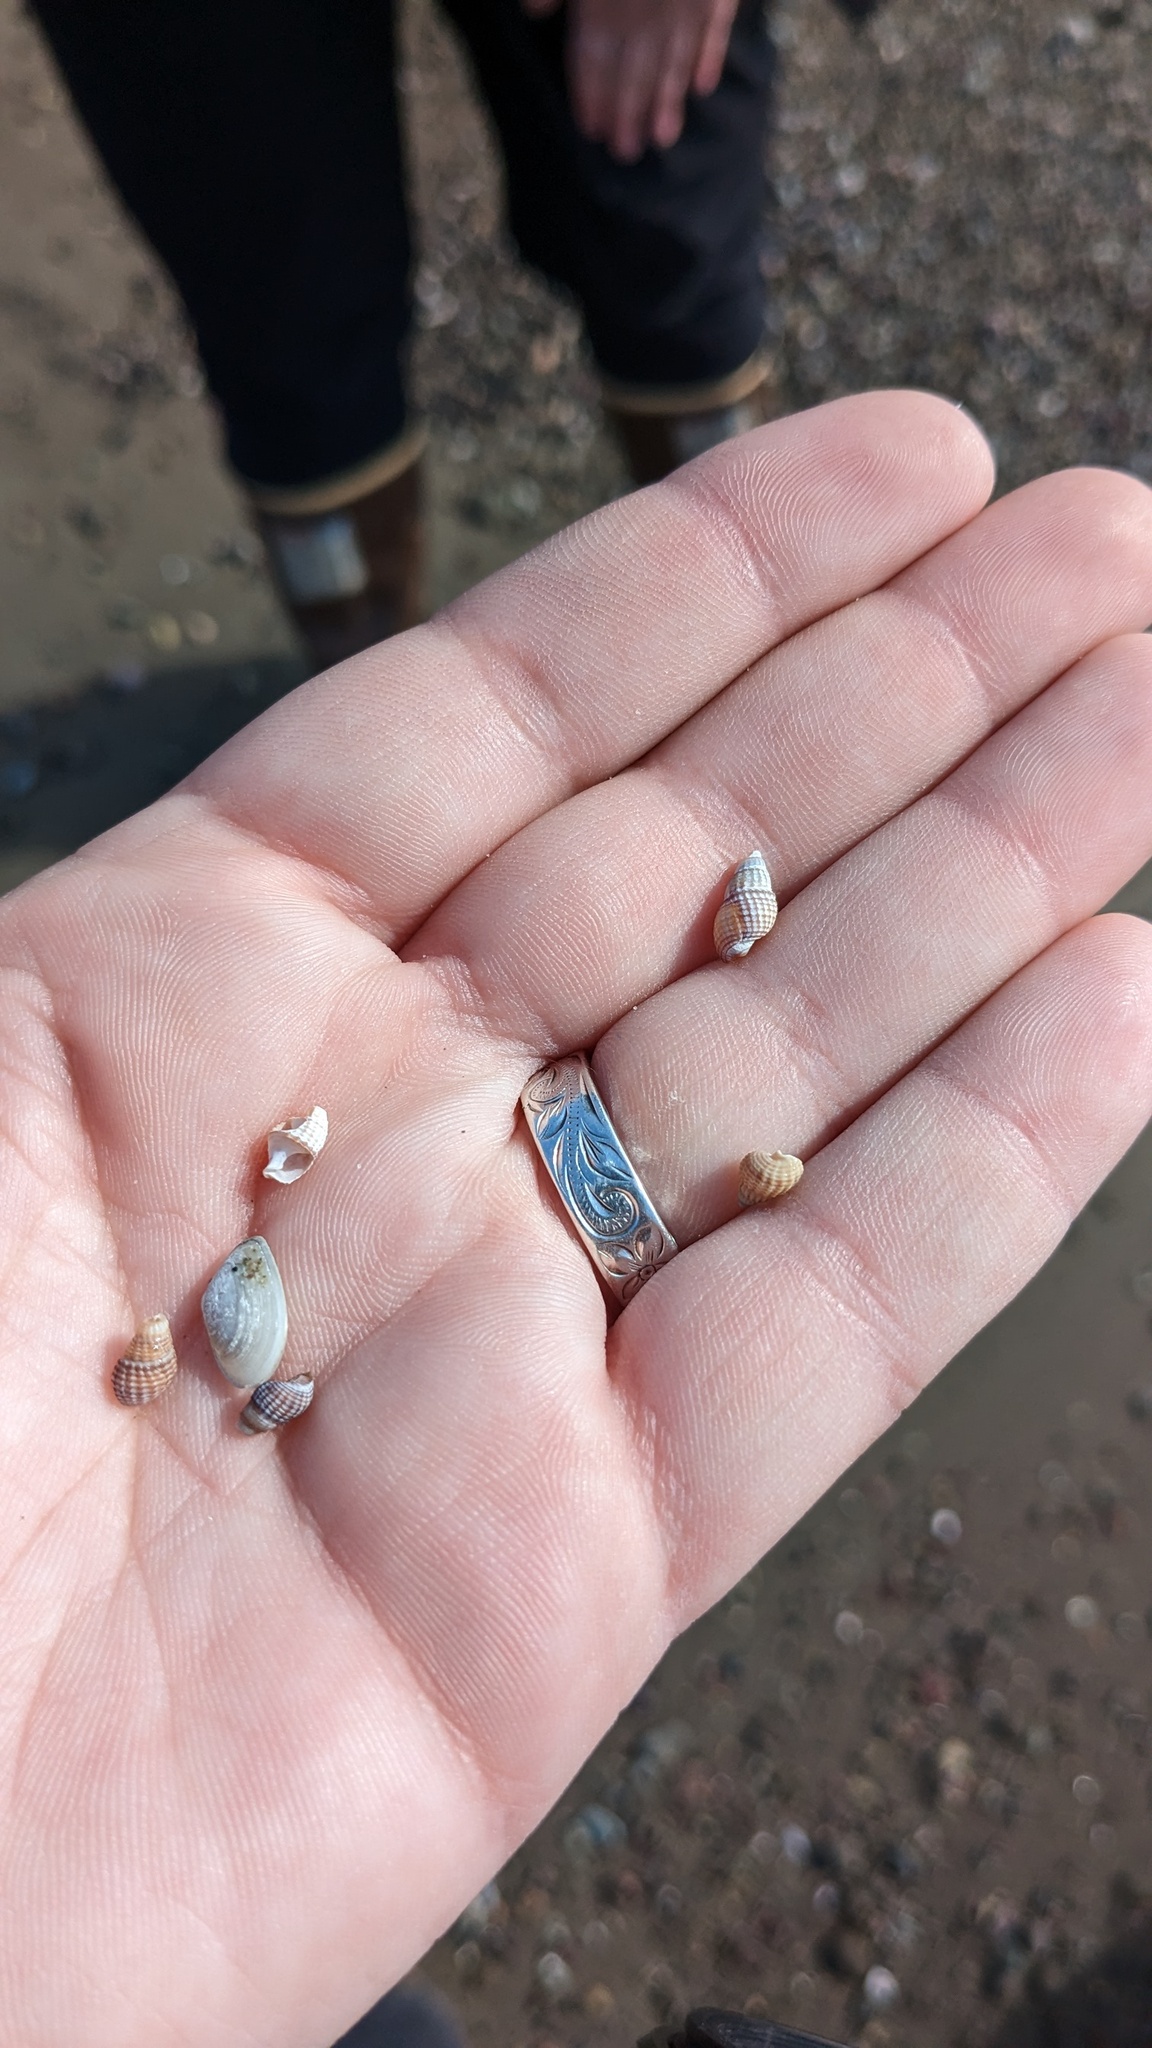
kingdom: Animalia
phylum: Mollusca
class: Gastropoda
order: Neogastropoda
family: Nassariidae
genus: Ilyanassa
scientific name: Ilyanassa trivittata
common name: Three-line mudsnail
